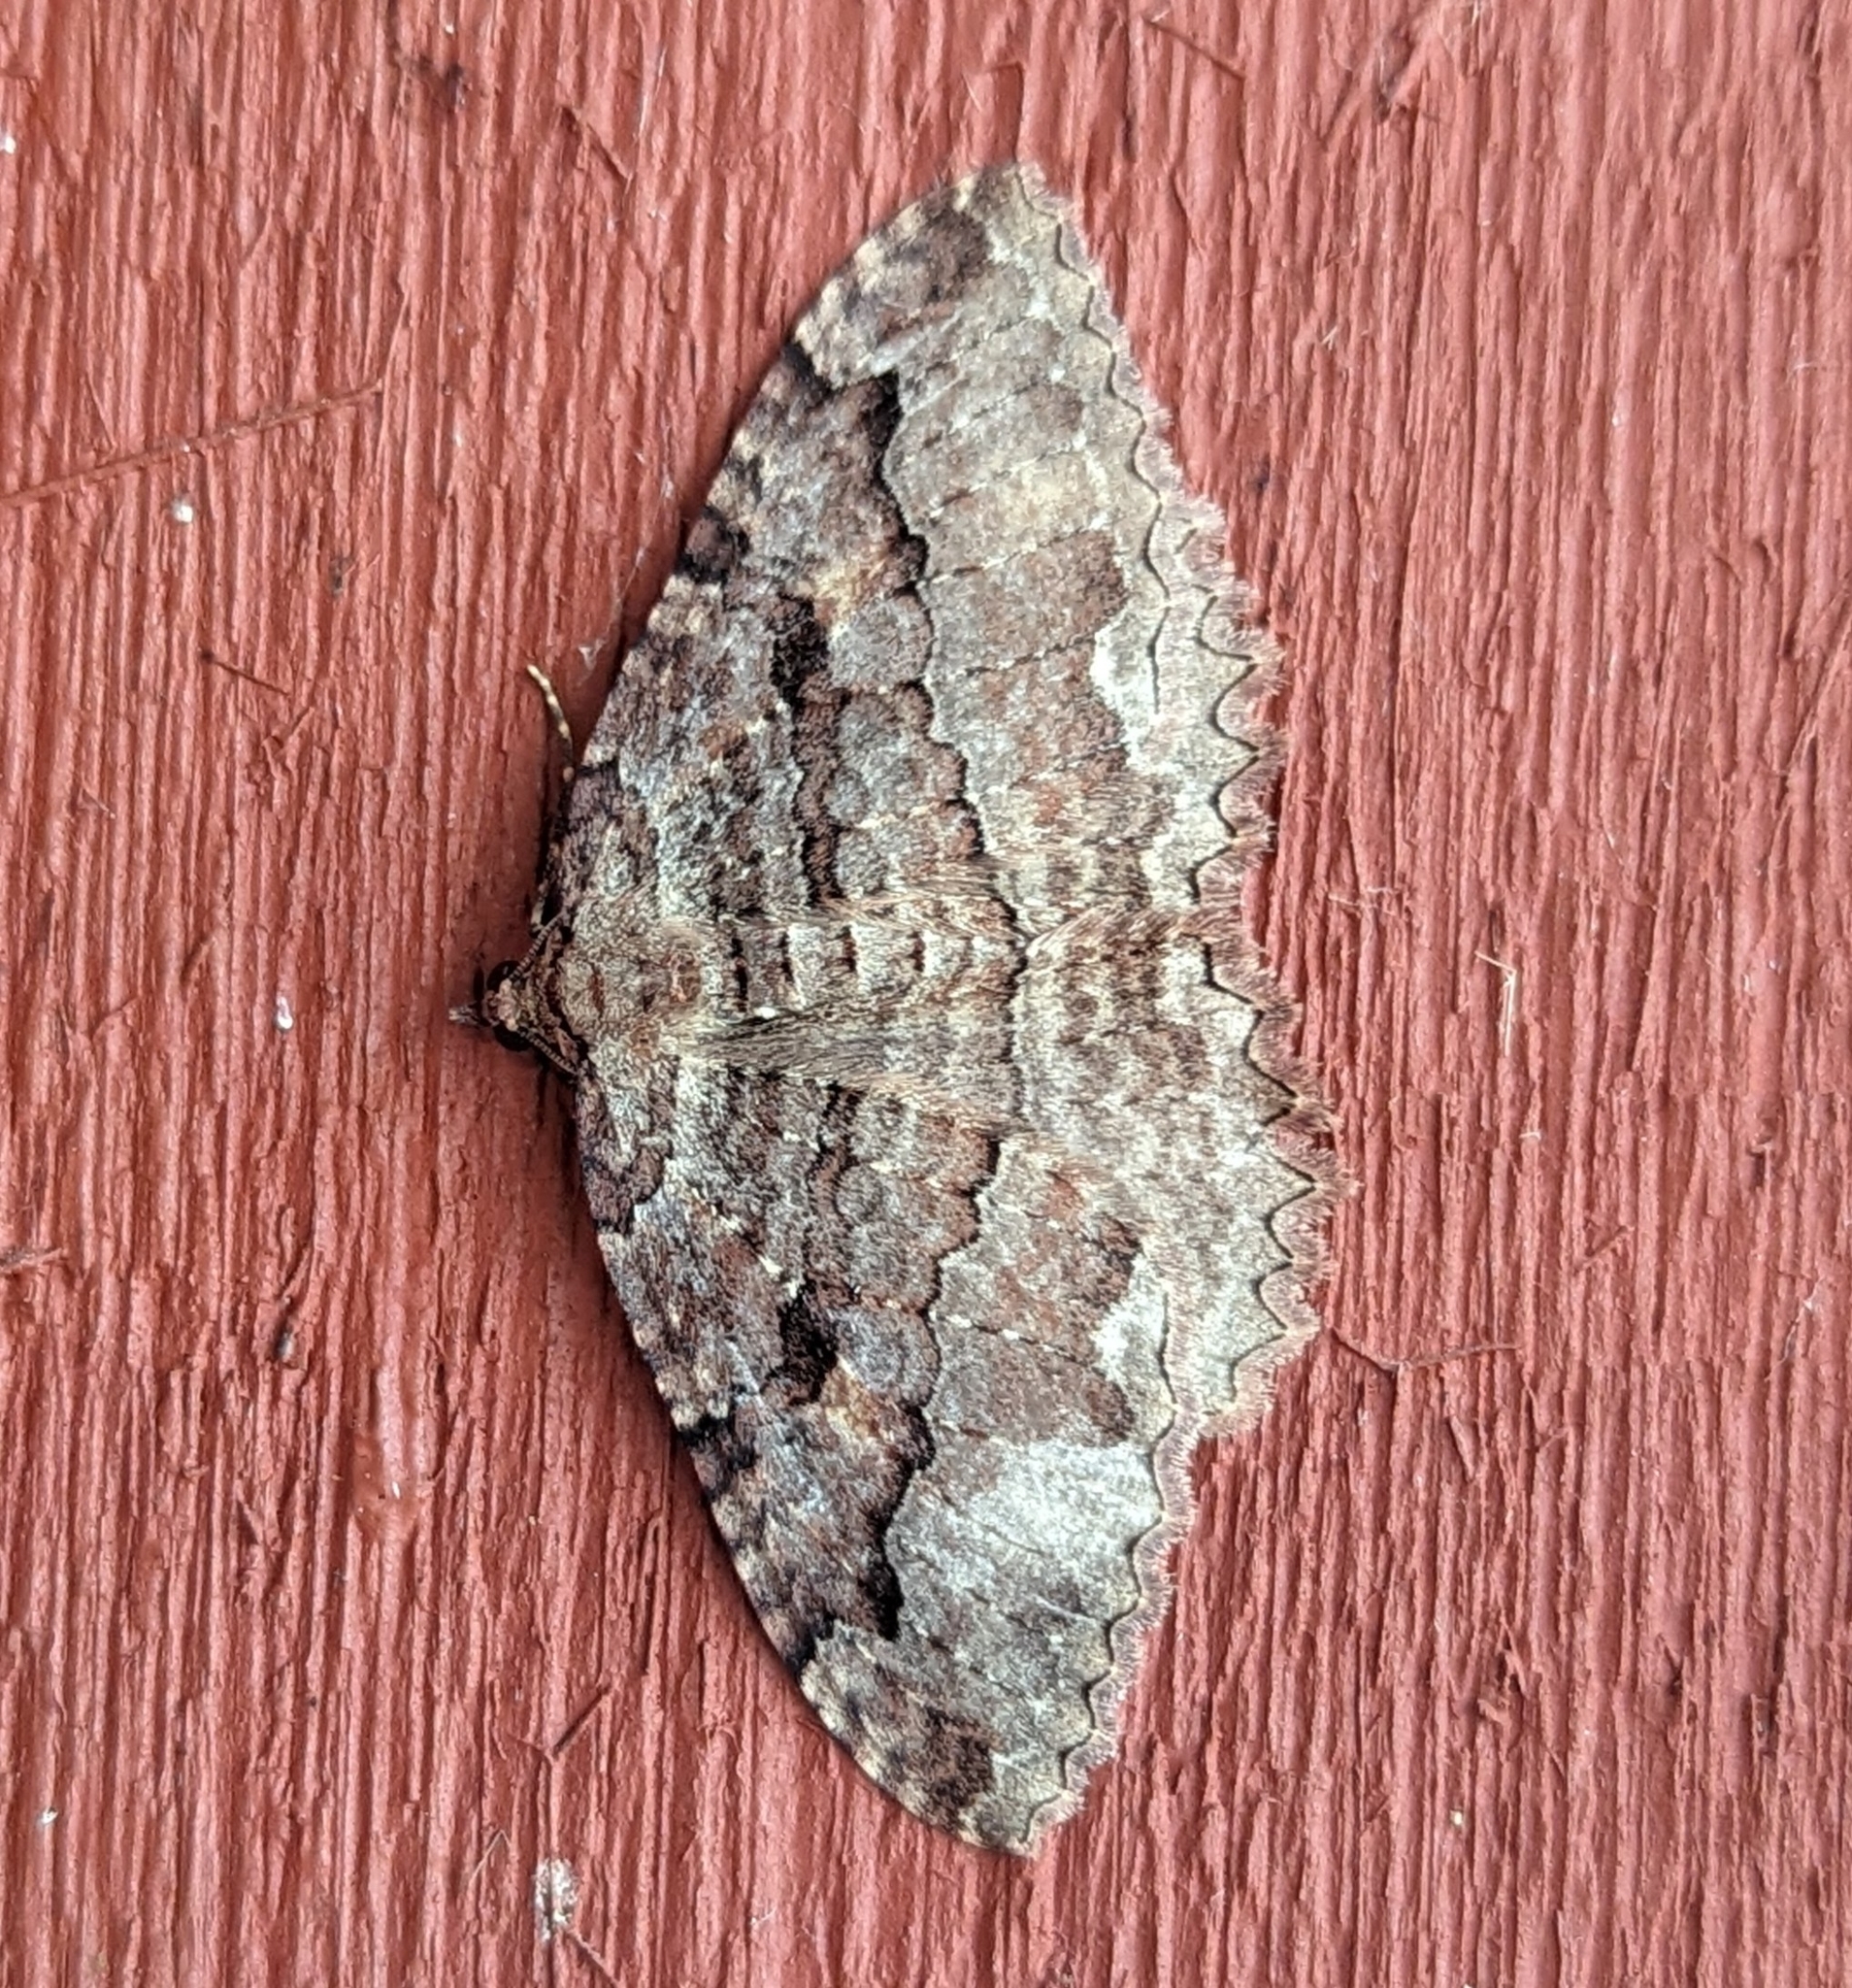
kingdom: Animalia
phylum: Arthropoda
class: Insecta
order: Lepidoptera
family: Geometridae
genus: Triphosa
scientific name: Triphosa haesitata
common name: Tissue moth
